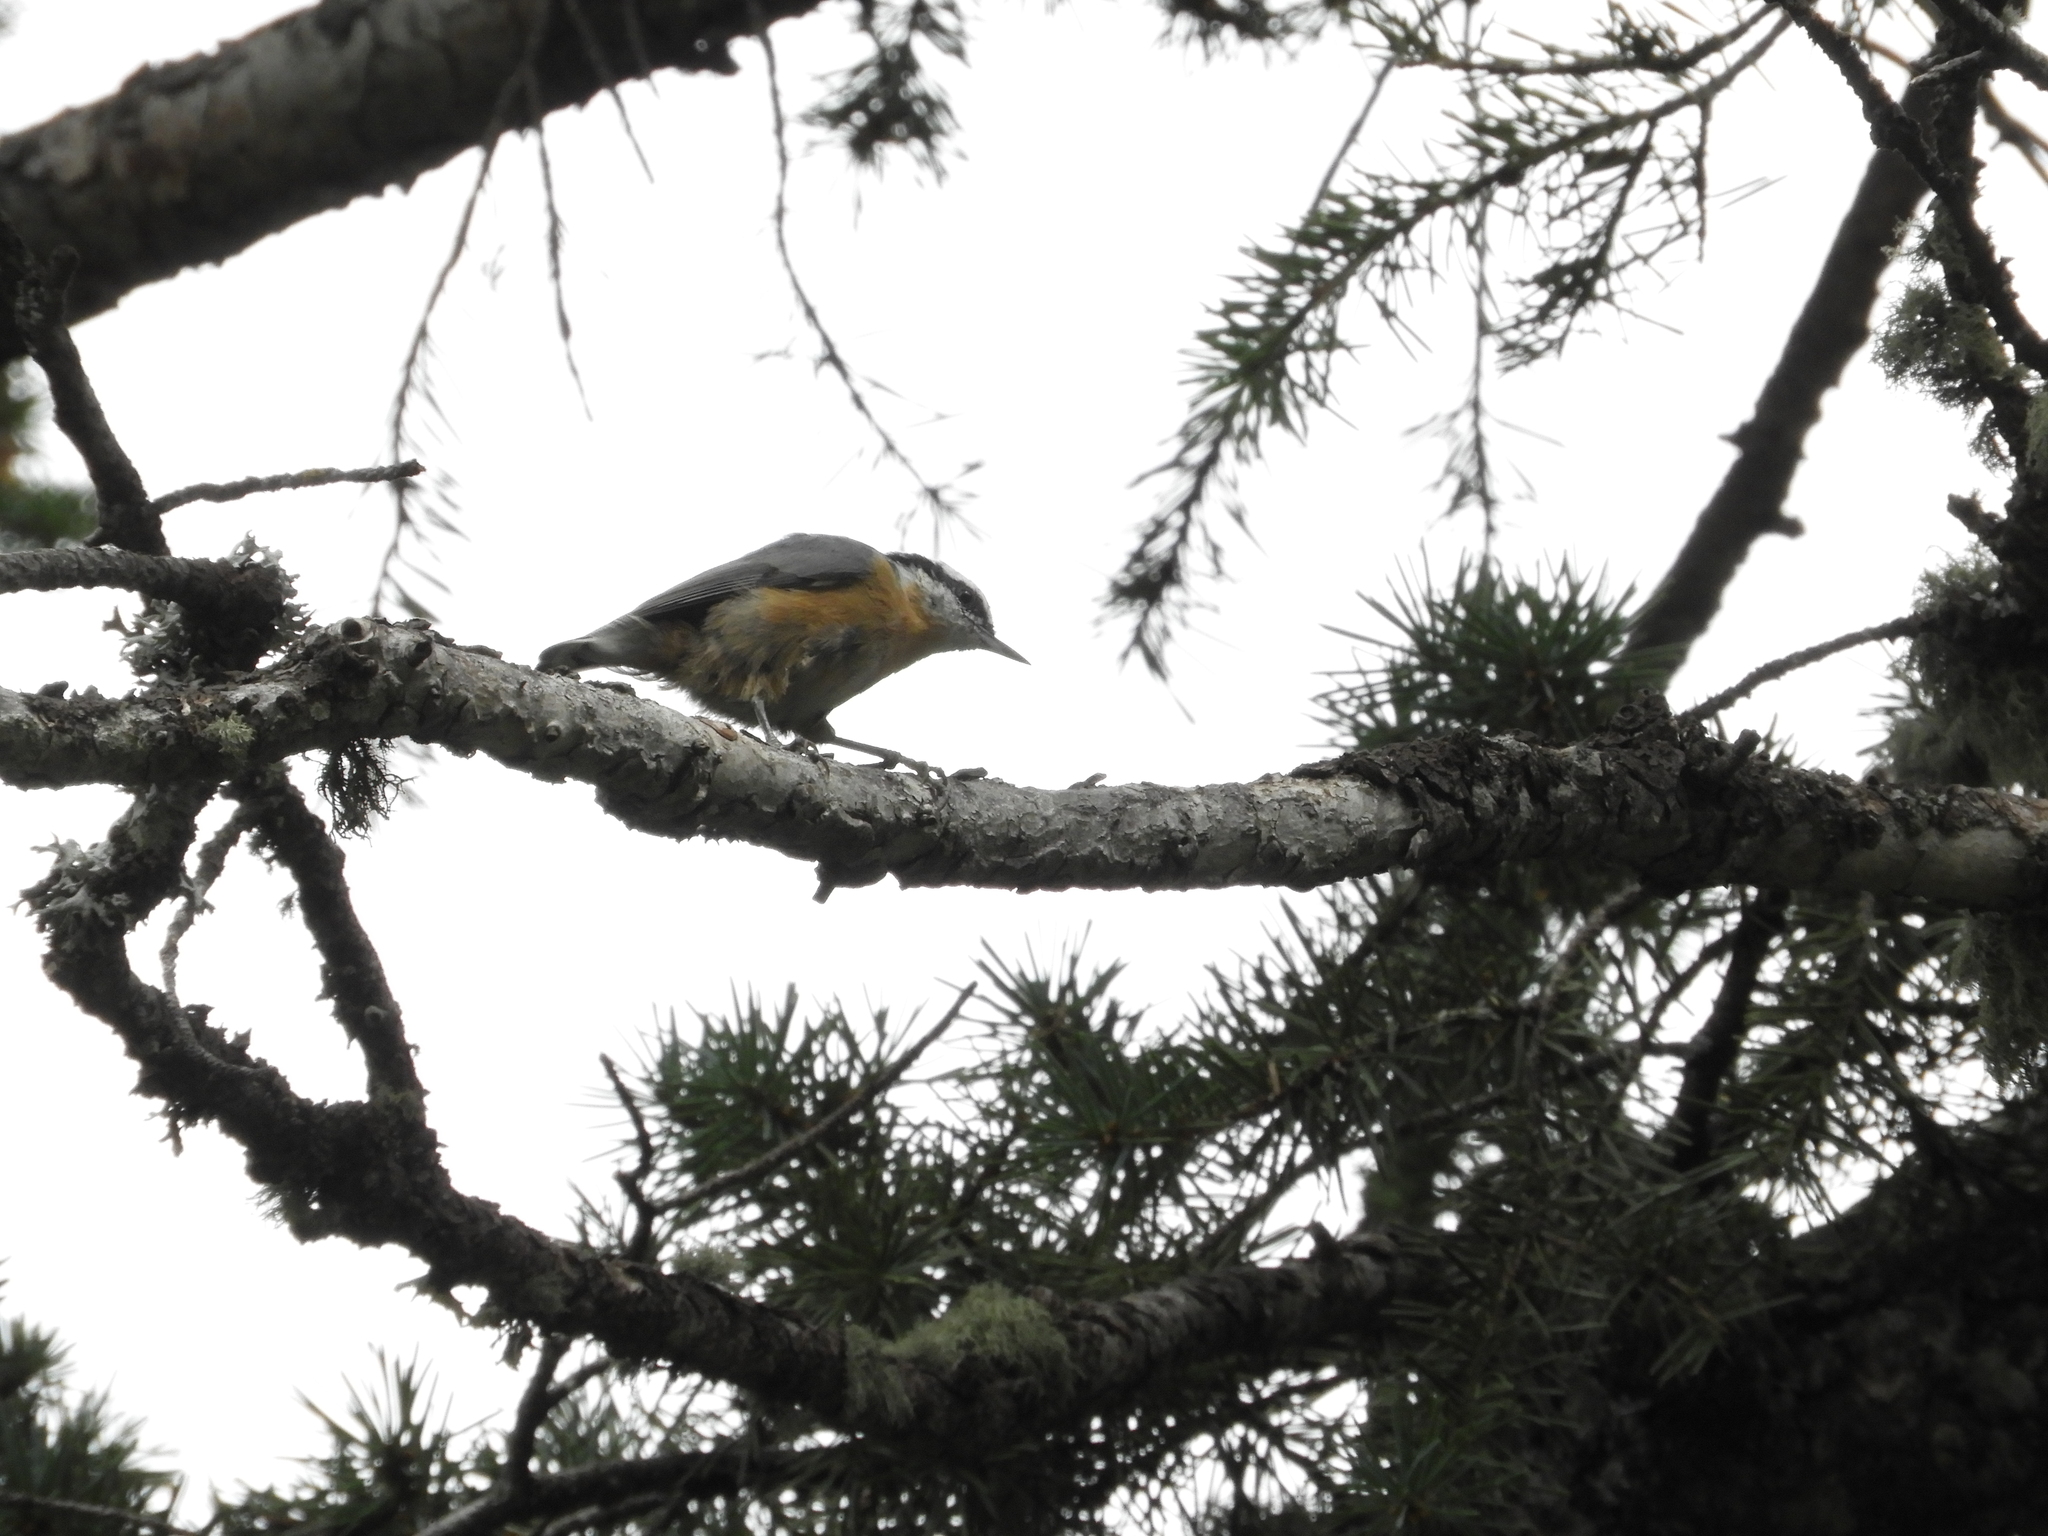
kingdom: Animalia
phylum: Chordata
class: Aves
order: Passeriformes
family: Sittidae
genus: Sitta
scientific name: Sitta canadensis
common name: Red-breasted nuthatch
